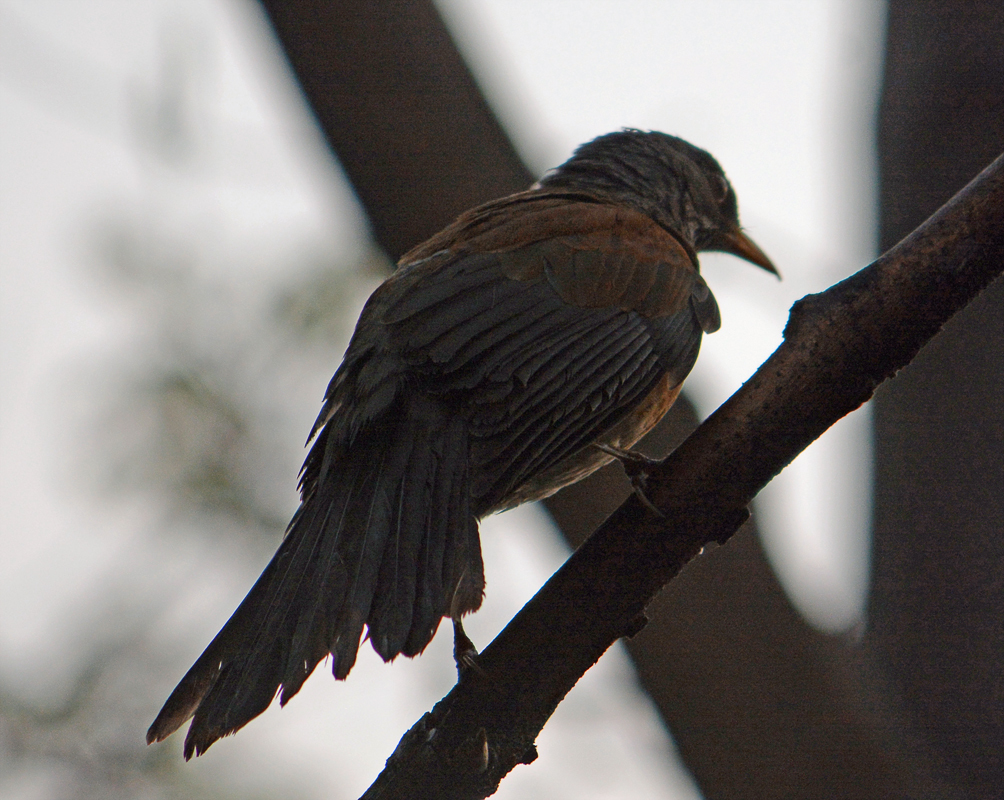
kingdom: Animalia
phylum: Chordata
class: Aves
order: Passeriformes
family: Turdidae
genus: Turdus
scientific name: Turdus rufopalliatus
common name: Rufous-backed robin
